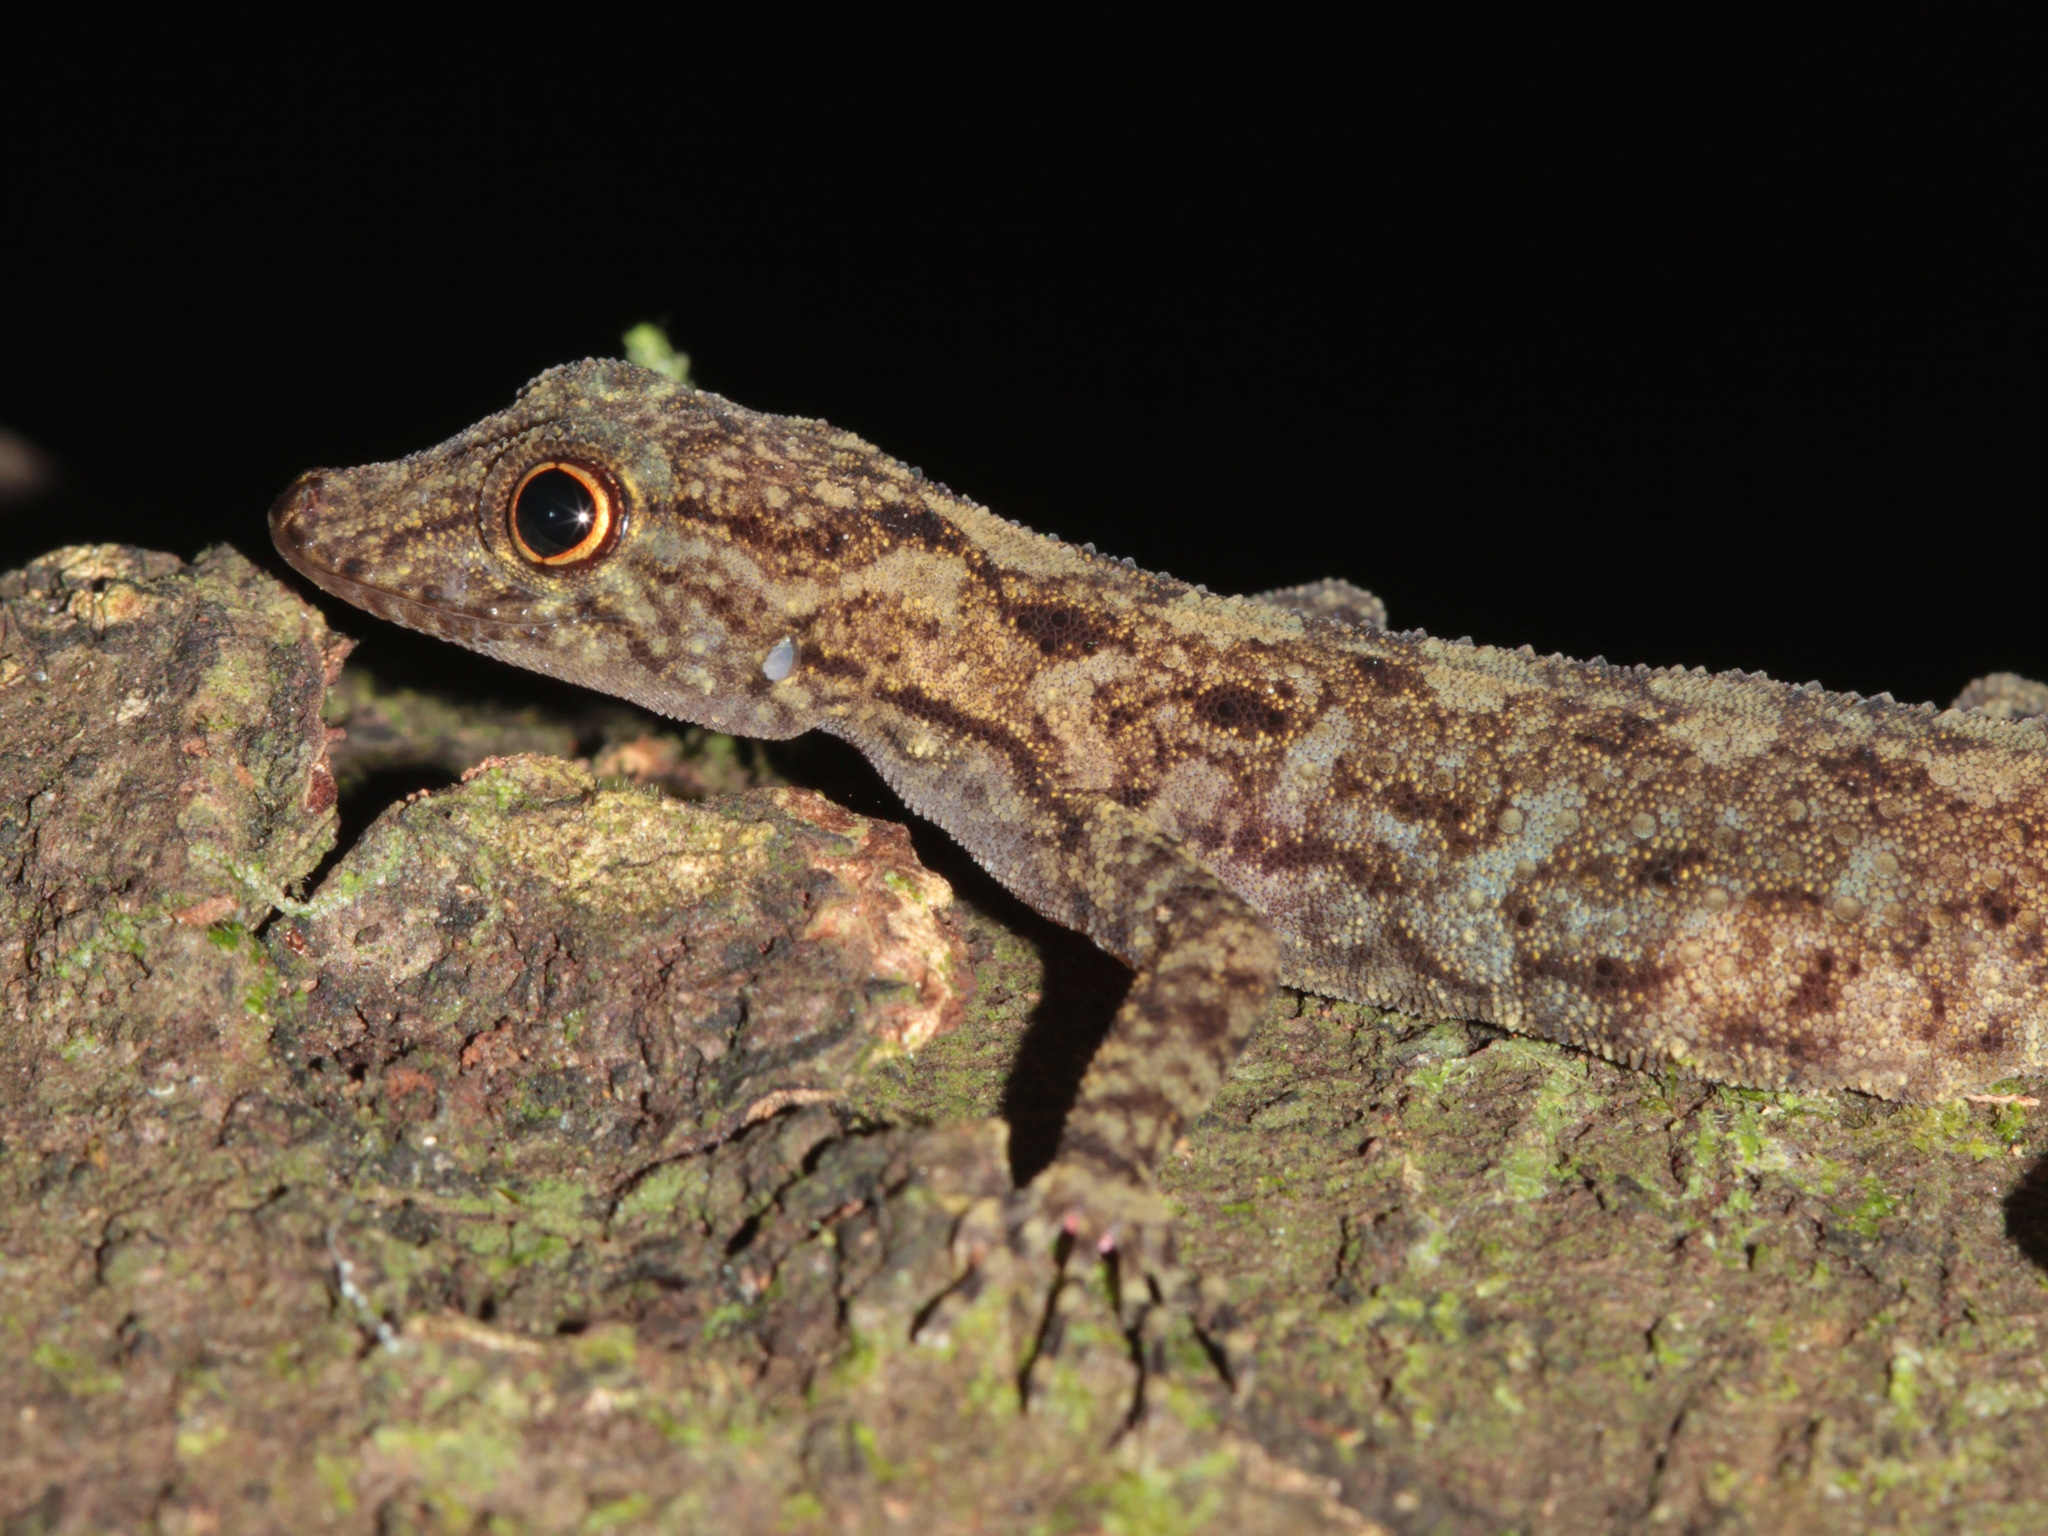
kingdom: Animalia
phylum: Chordata
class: Squamata
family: Gekkonidae
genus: Cnemaspis
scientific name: Cnemaspis chanardi
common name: Chan-ard’s rock gecko
